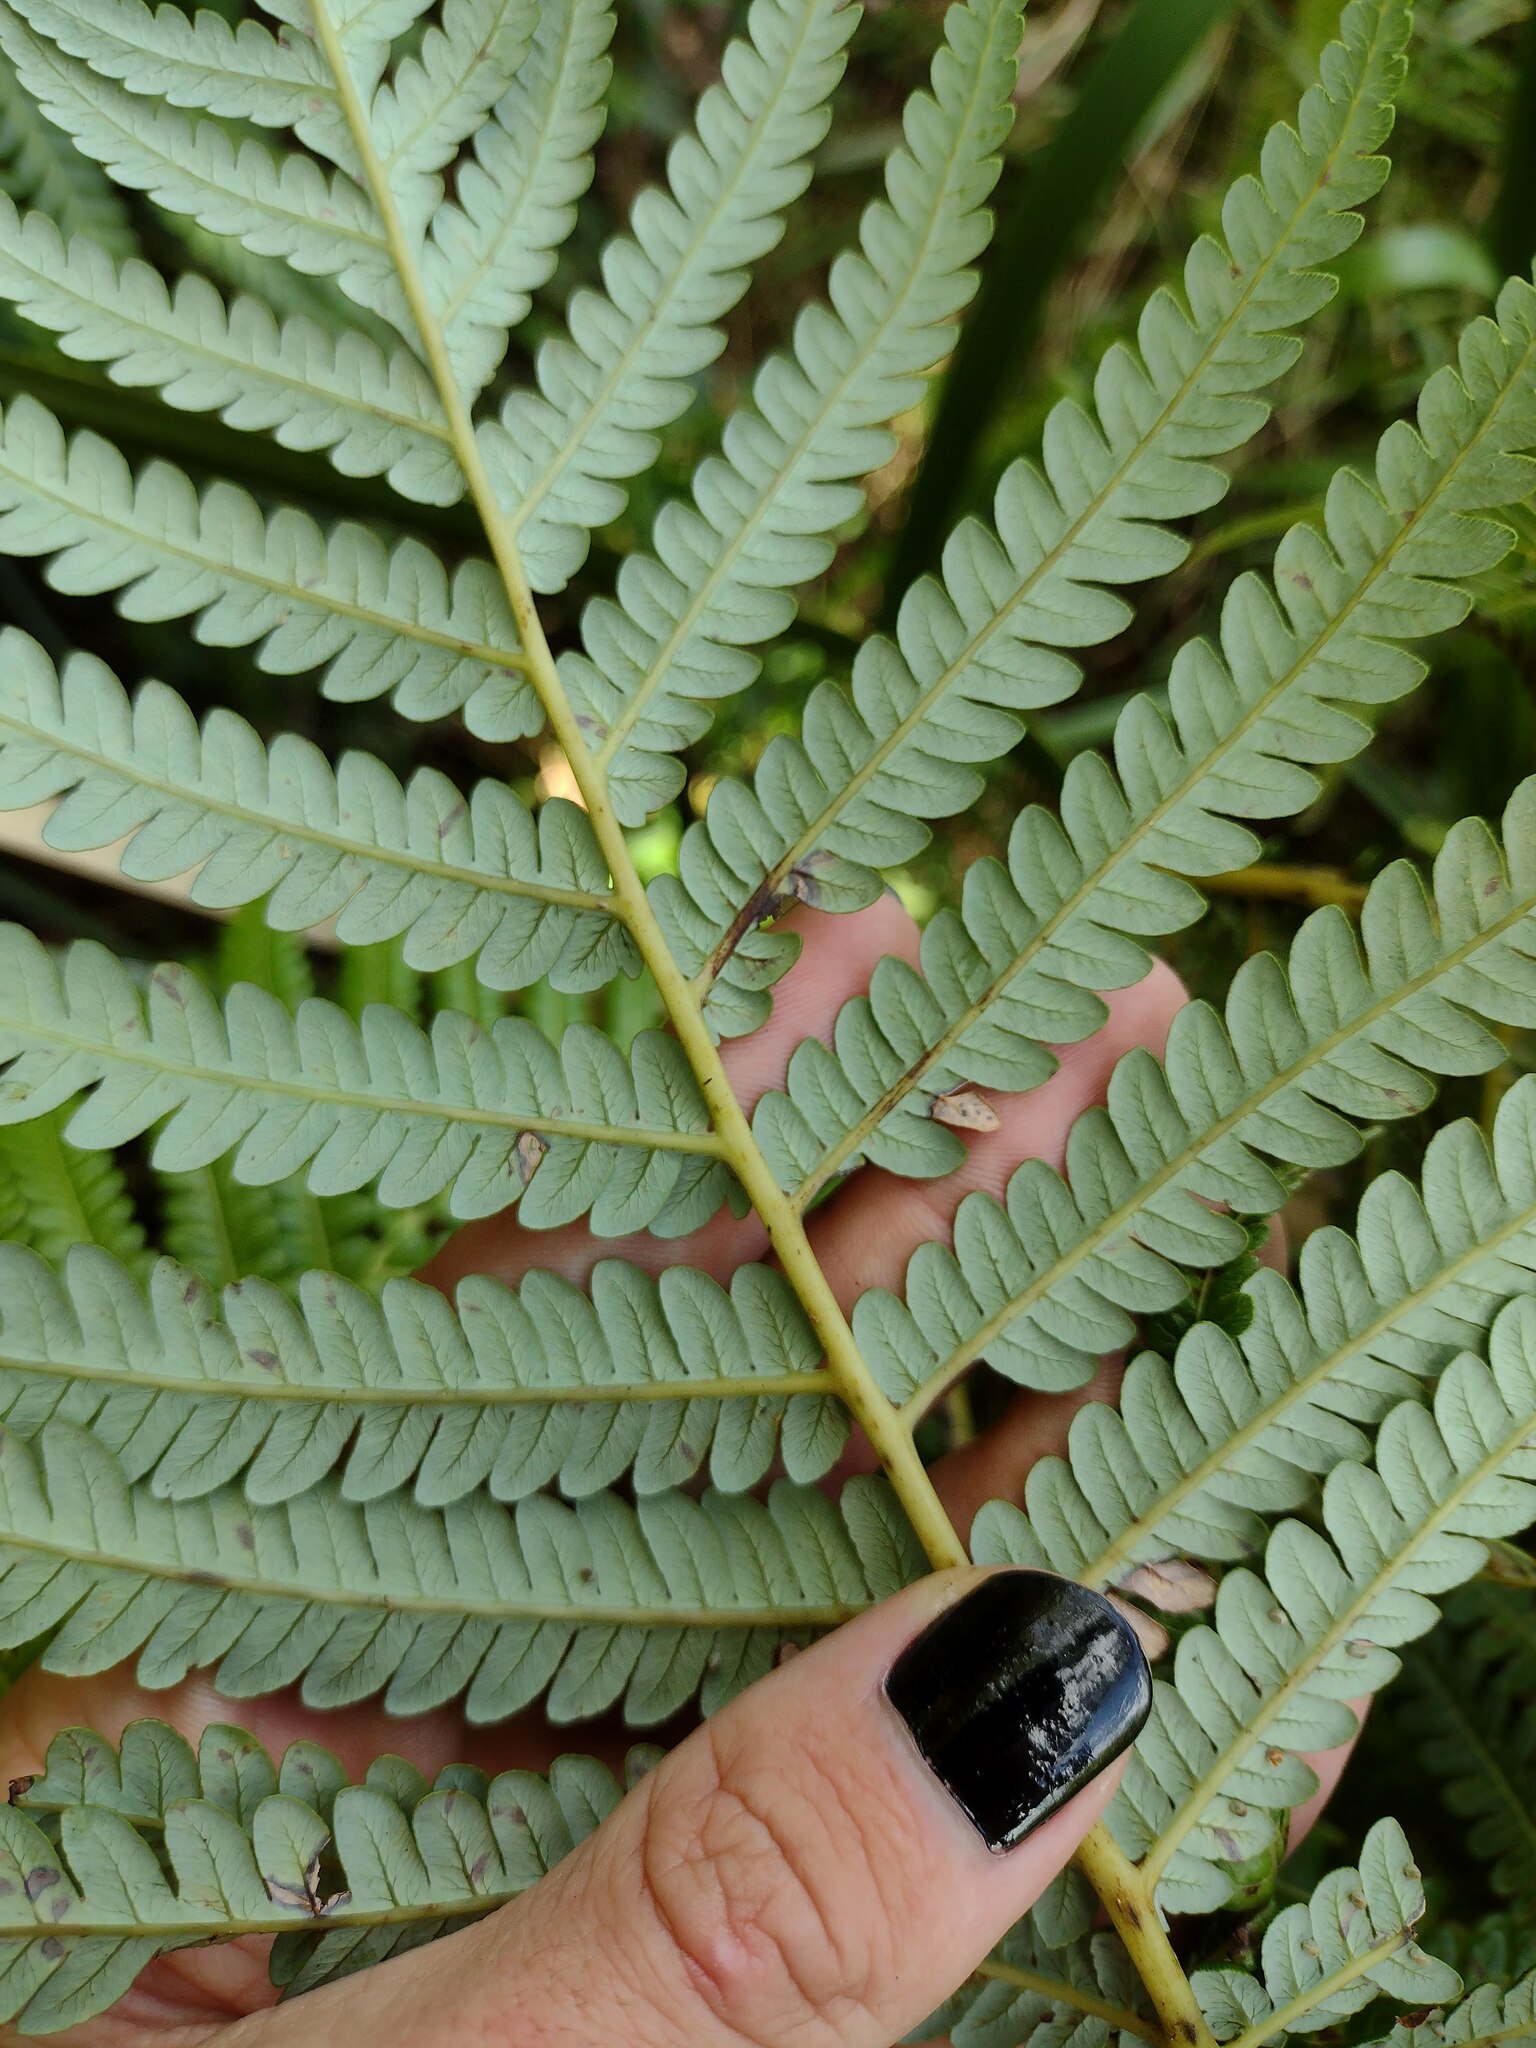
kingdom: Plantae
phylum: Tracheophyta
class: Polypodiopsida
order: Cyatheales
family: Cibotiaceae
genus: Cibotium
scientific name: Cibotium glaucum
